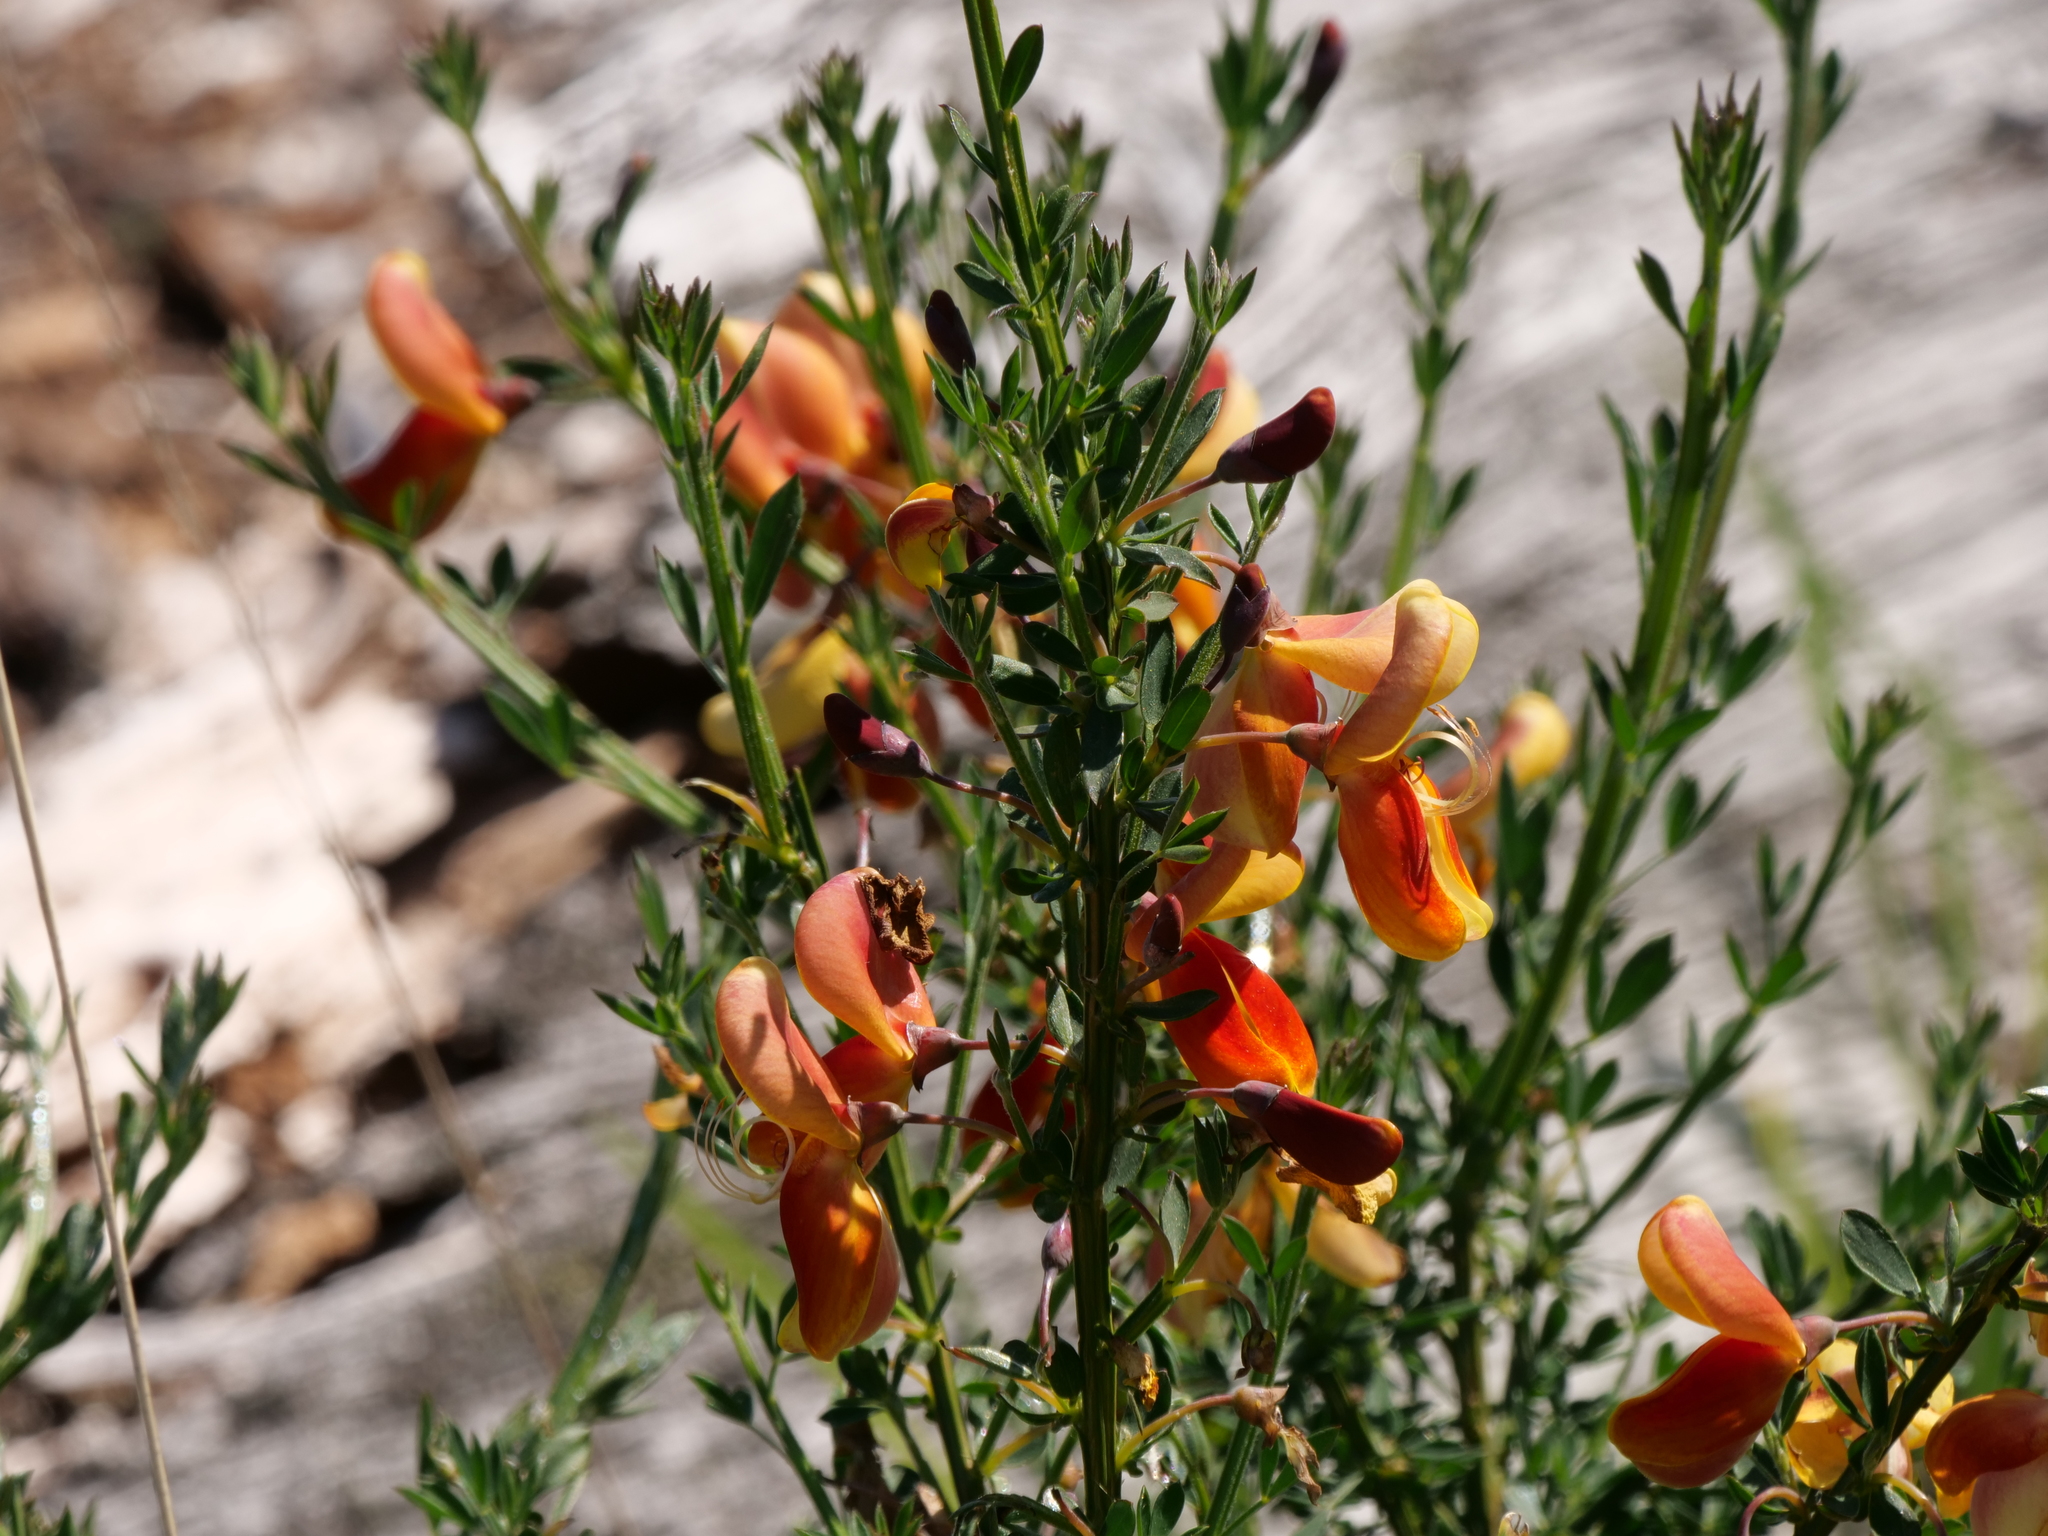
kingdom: Plantae
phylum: Tracheophyta
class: Magnoliopsida
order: Fabales
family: Fabaceae
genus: Cytisus
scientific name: Cytisus scoparius
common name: Scotch broom
